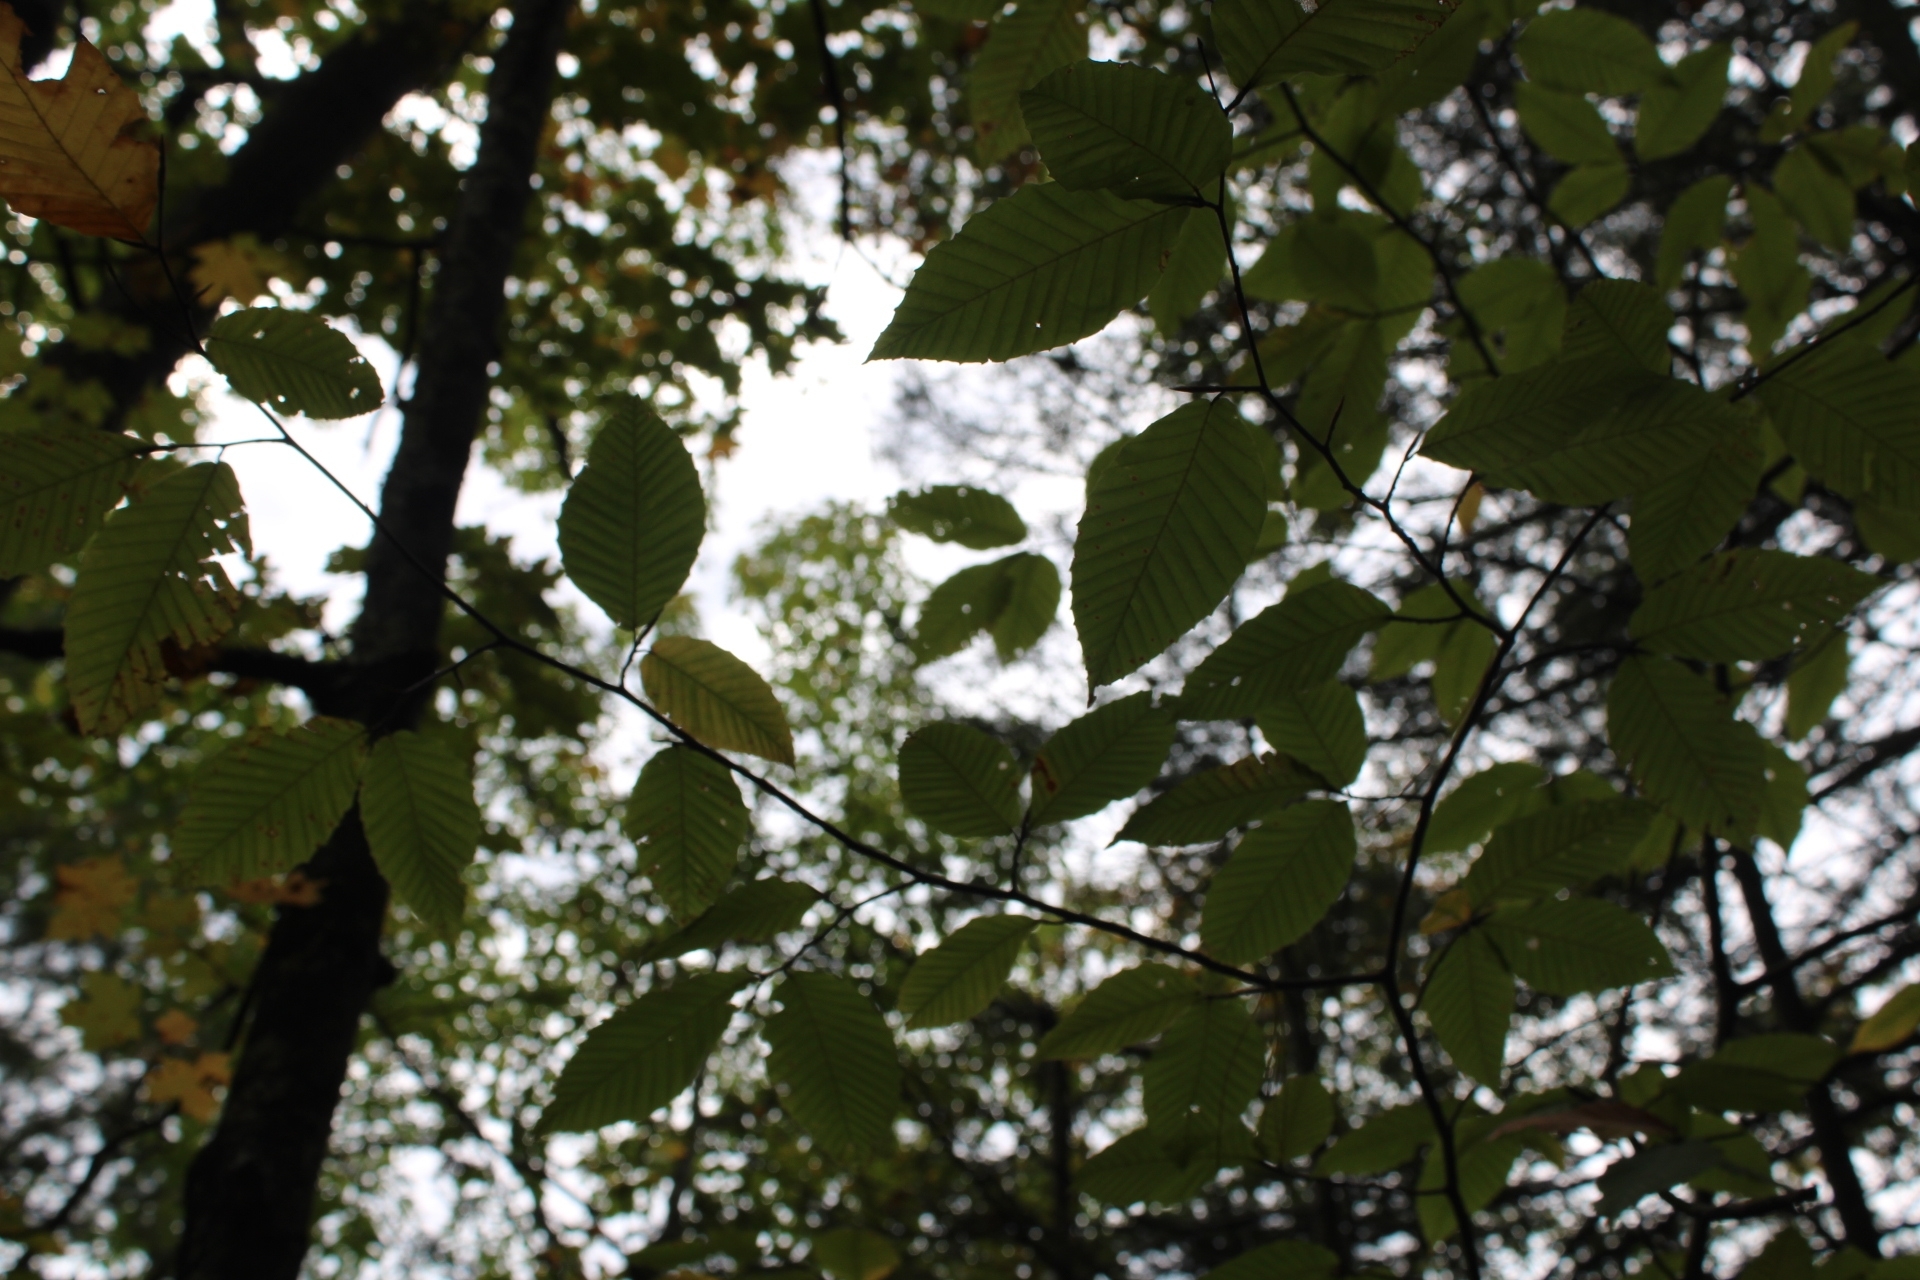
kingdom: Plantae
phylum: Tracheophyta
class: Magnoliopsida
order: Fagales
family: Fagaceae
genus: Fagus
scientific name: Fagus grandifolia
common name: American beech
